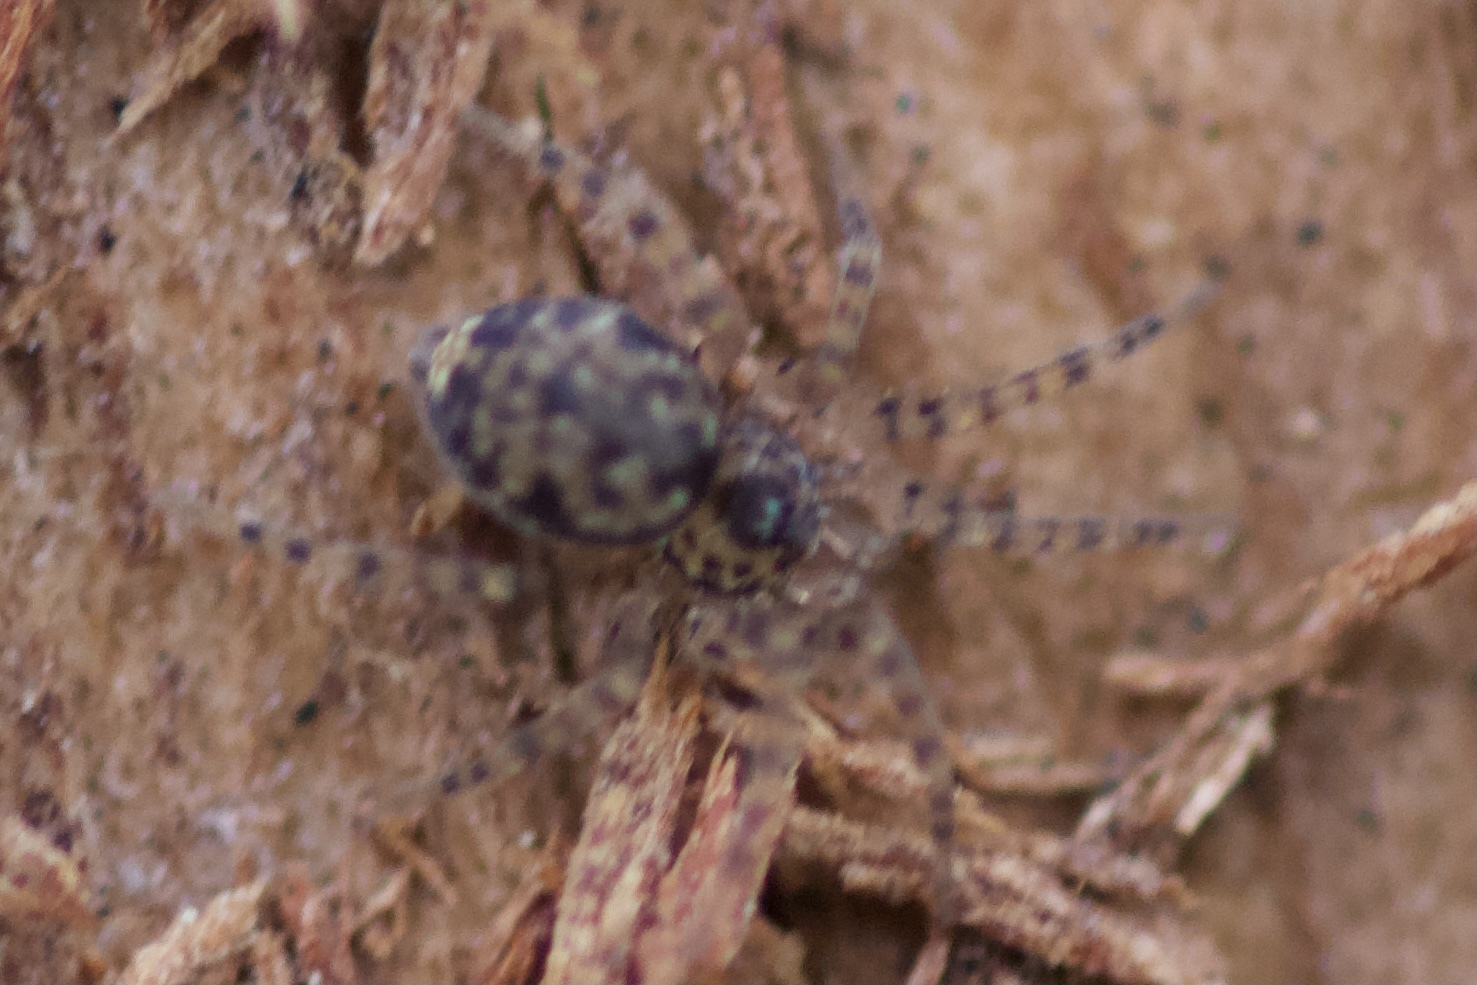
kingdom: Animalia
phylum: Arthropoda
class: Arachnida
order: Araneae
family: Oecobiidae
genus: Oecobius
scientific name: Oecobius navus
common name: Flatmesh weaver
